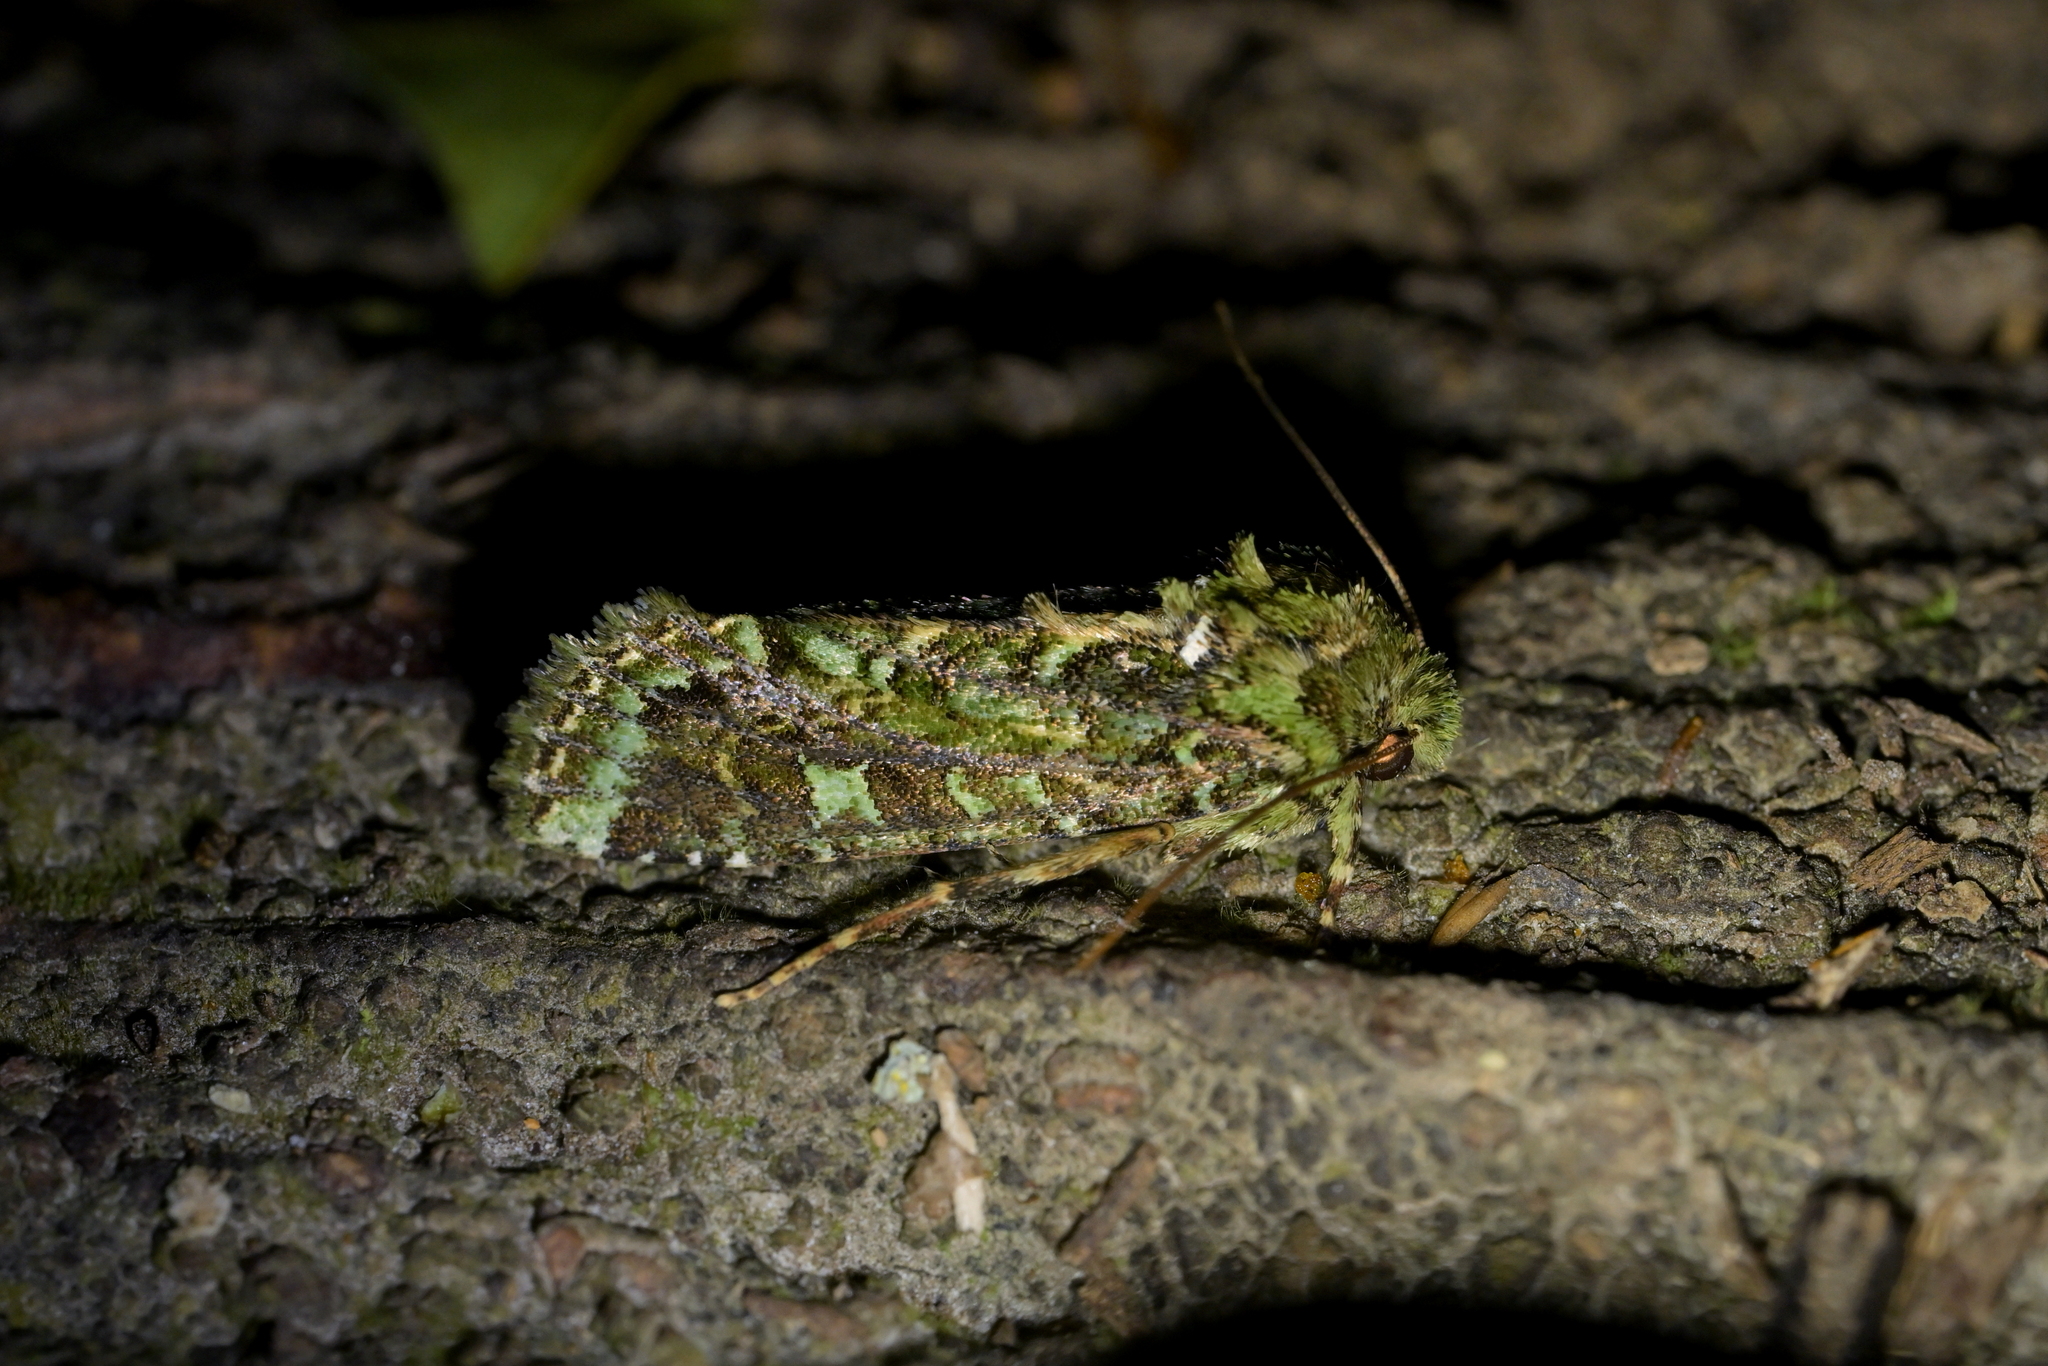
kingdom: Animalia
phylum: Arthropoda
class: Insecta
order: Lepidoptera
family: Noctuidae
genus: Feredayia
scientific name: Feredayia grammosa
